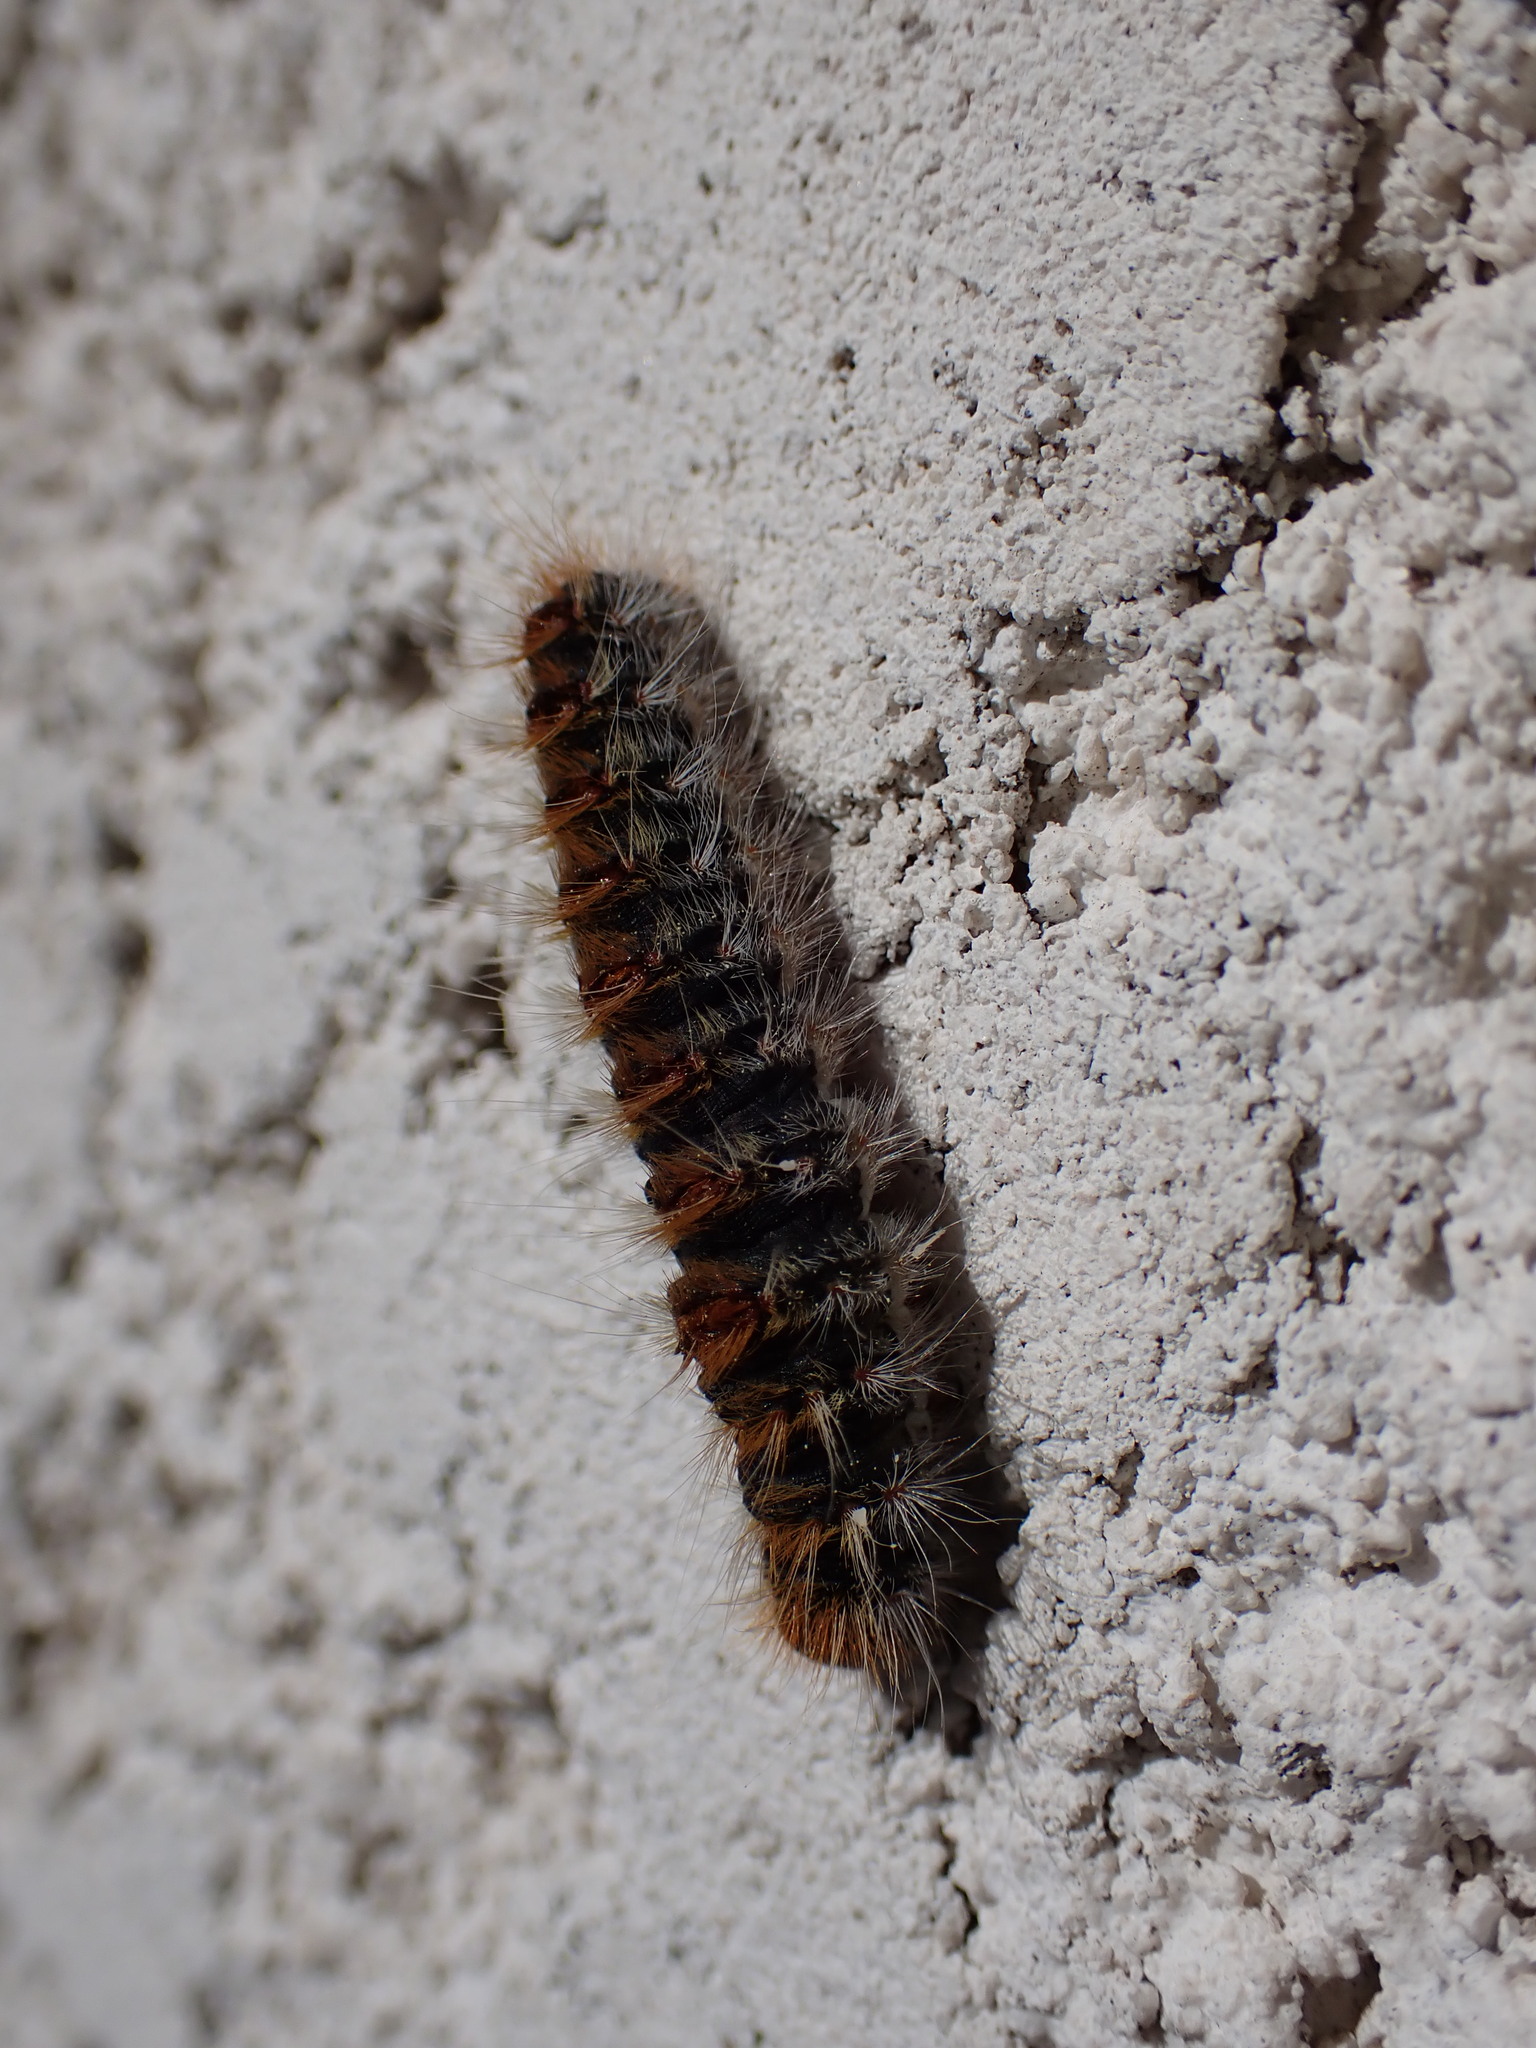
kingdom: Animalia
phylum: Arthropoda
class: Insecta
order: Lepidoptera
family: Notodontidae
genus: Thaumetopoea
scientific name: Thaumetopoea pityocampa
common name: Pine processionary
